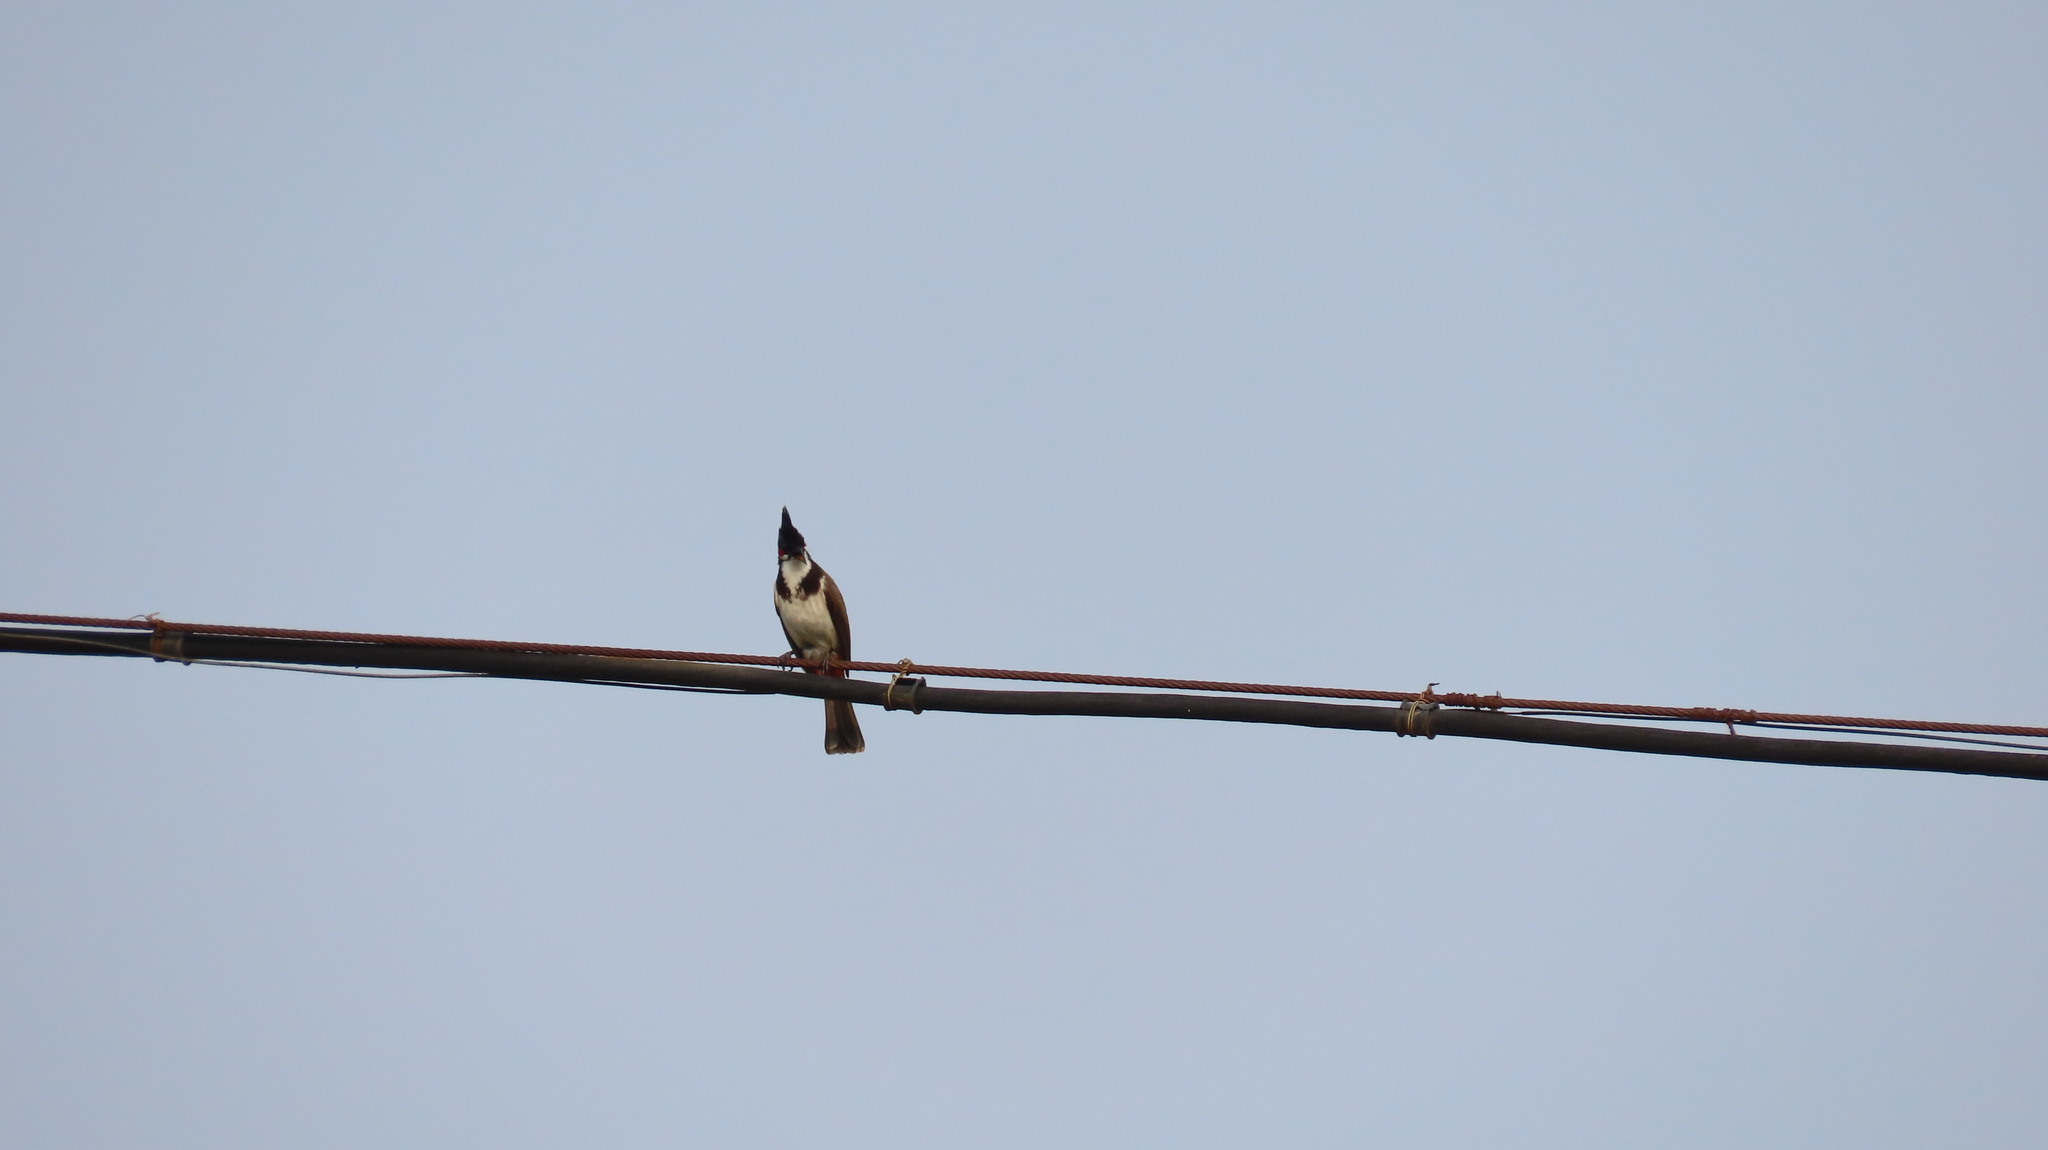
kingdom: Animalia
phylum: Chordata
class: Aves
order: Passeriformes
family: Pycnonotidae
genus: Pycnonotus
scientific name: Pycnonotus jocosus
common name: Red-whiskered bulbul
